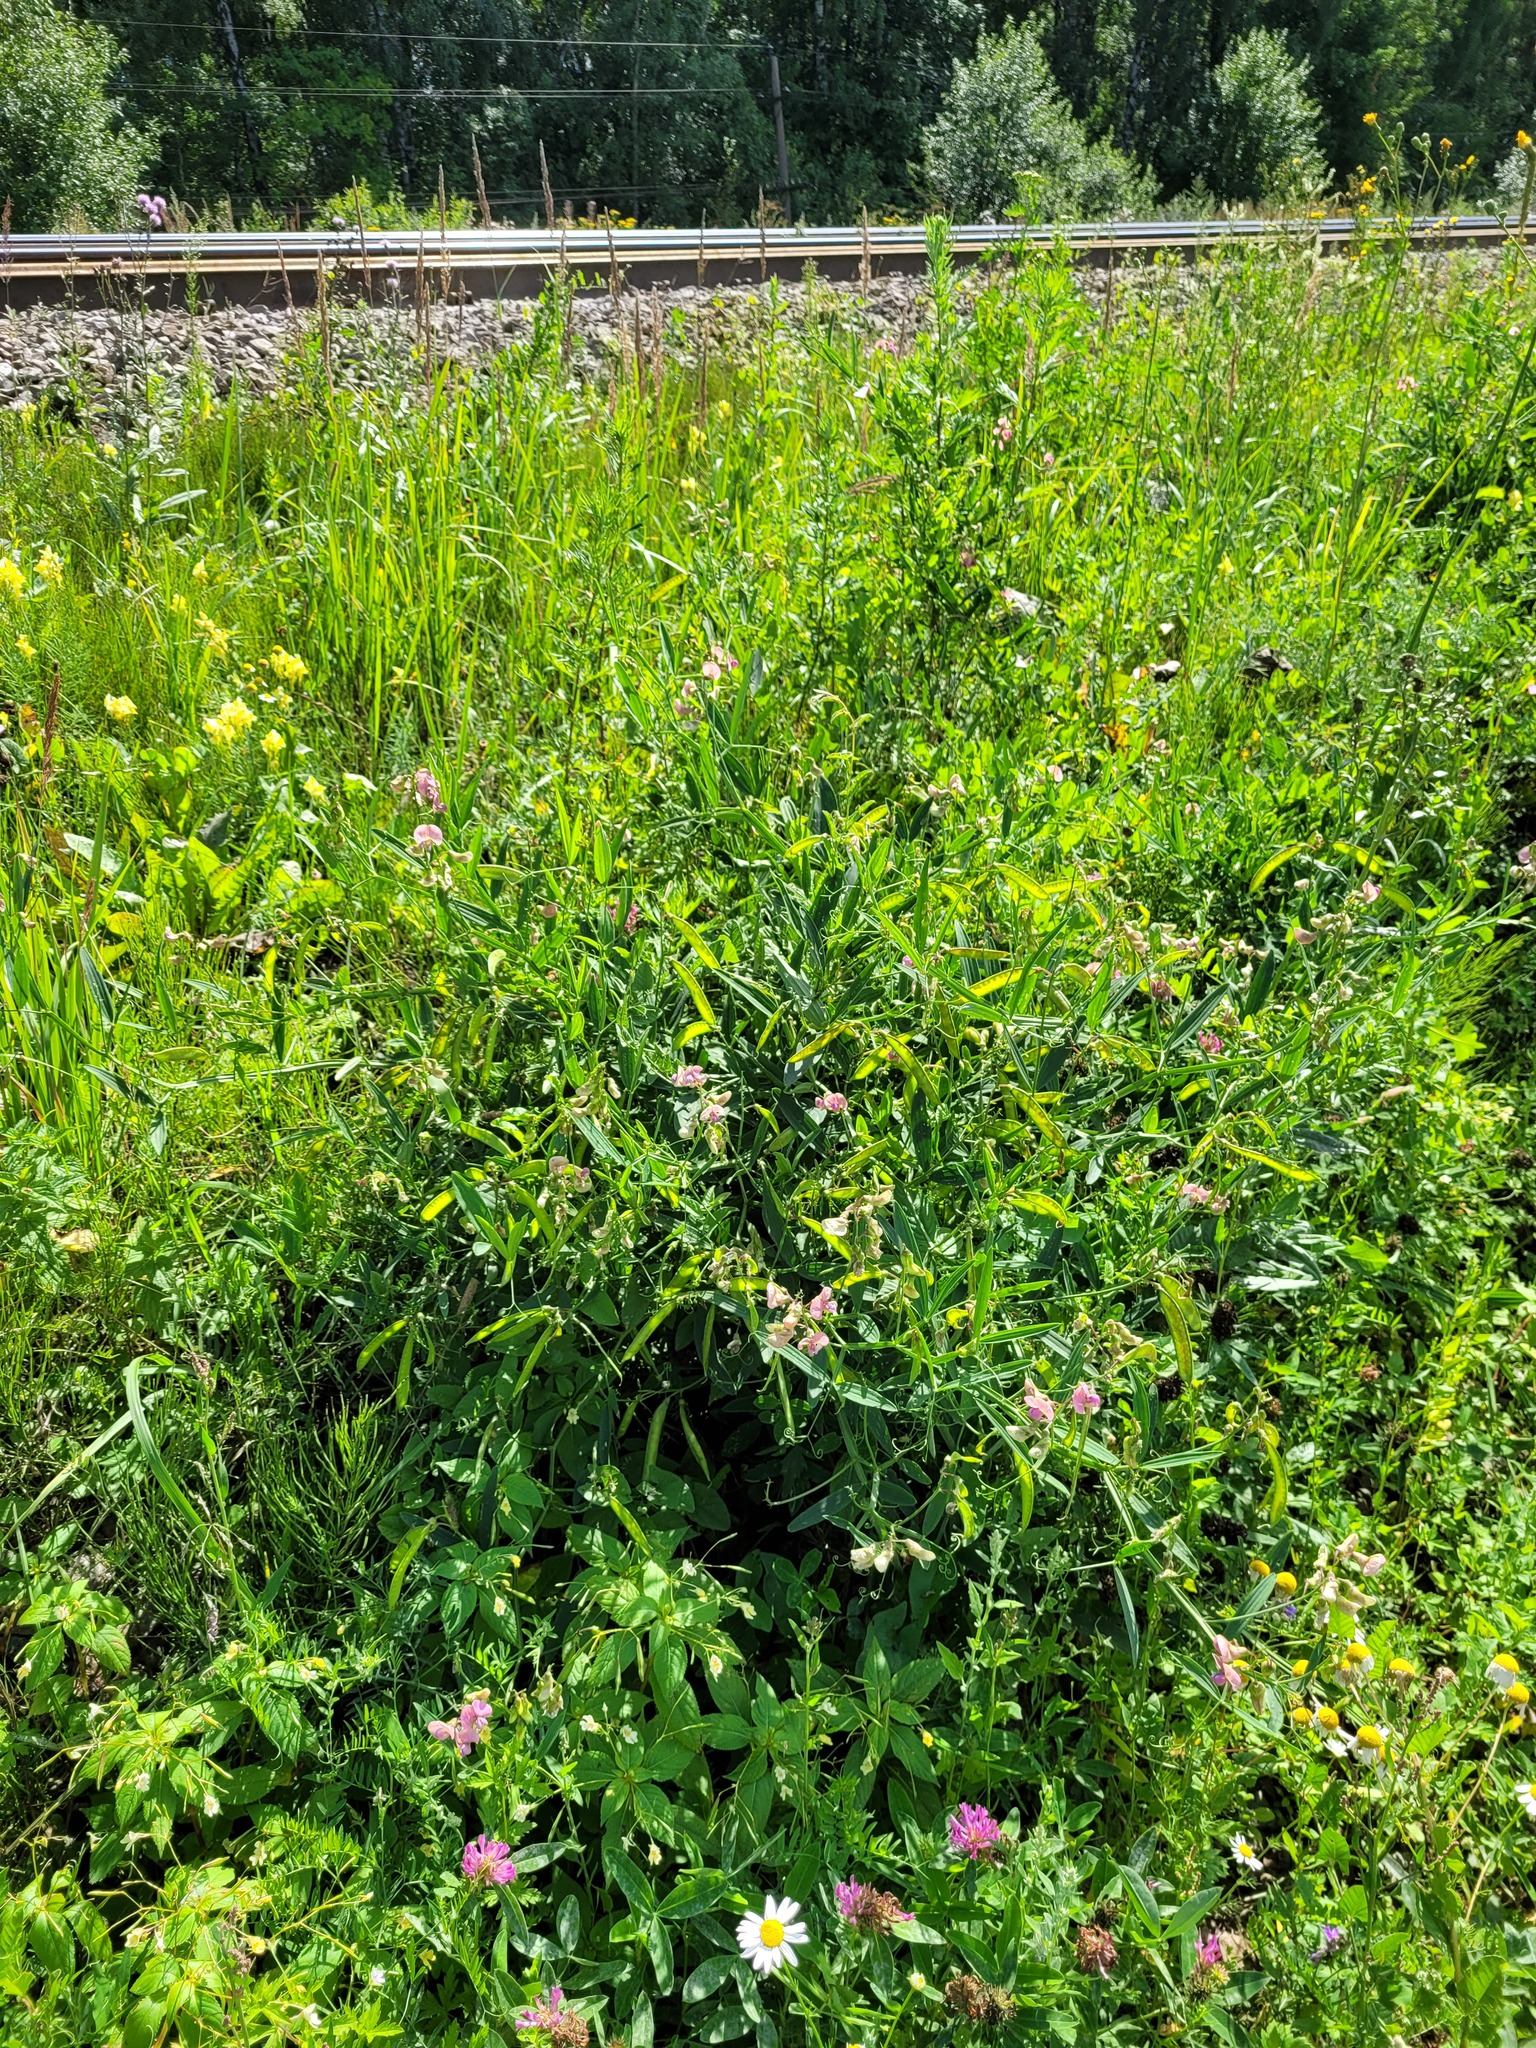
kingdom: Plantae
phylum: Tracheophyta
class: Magnoliopsida
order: Fabales
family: Fabaceae
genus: Lathyrus
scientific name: Lathyrus sylvestris
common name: Flat pea
